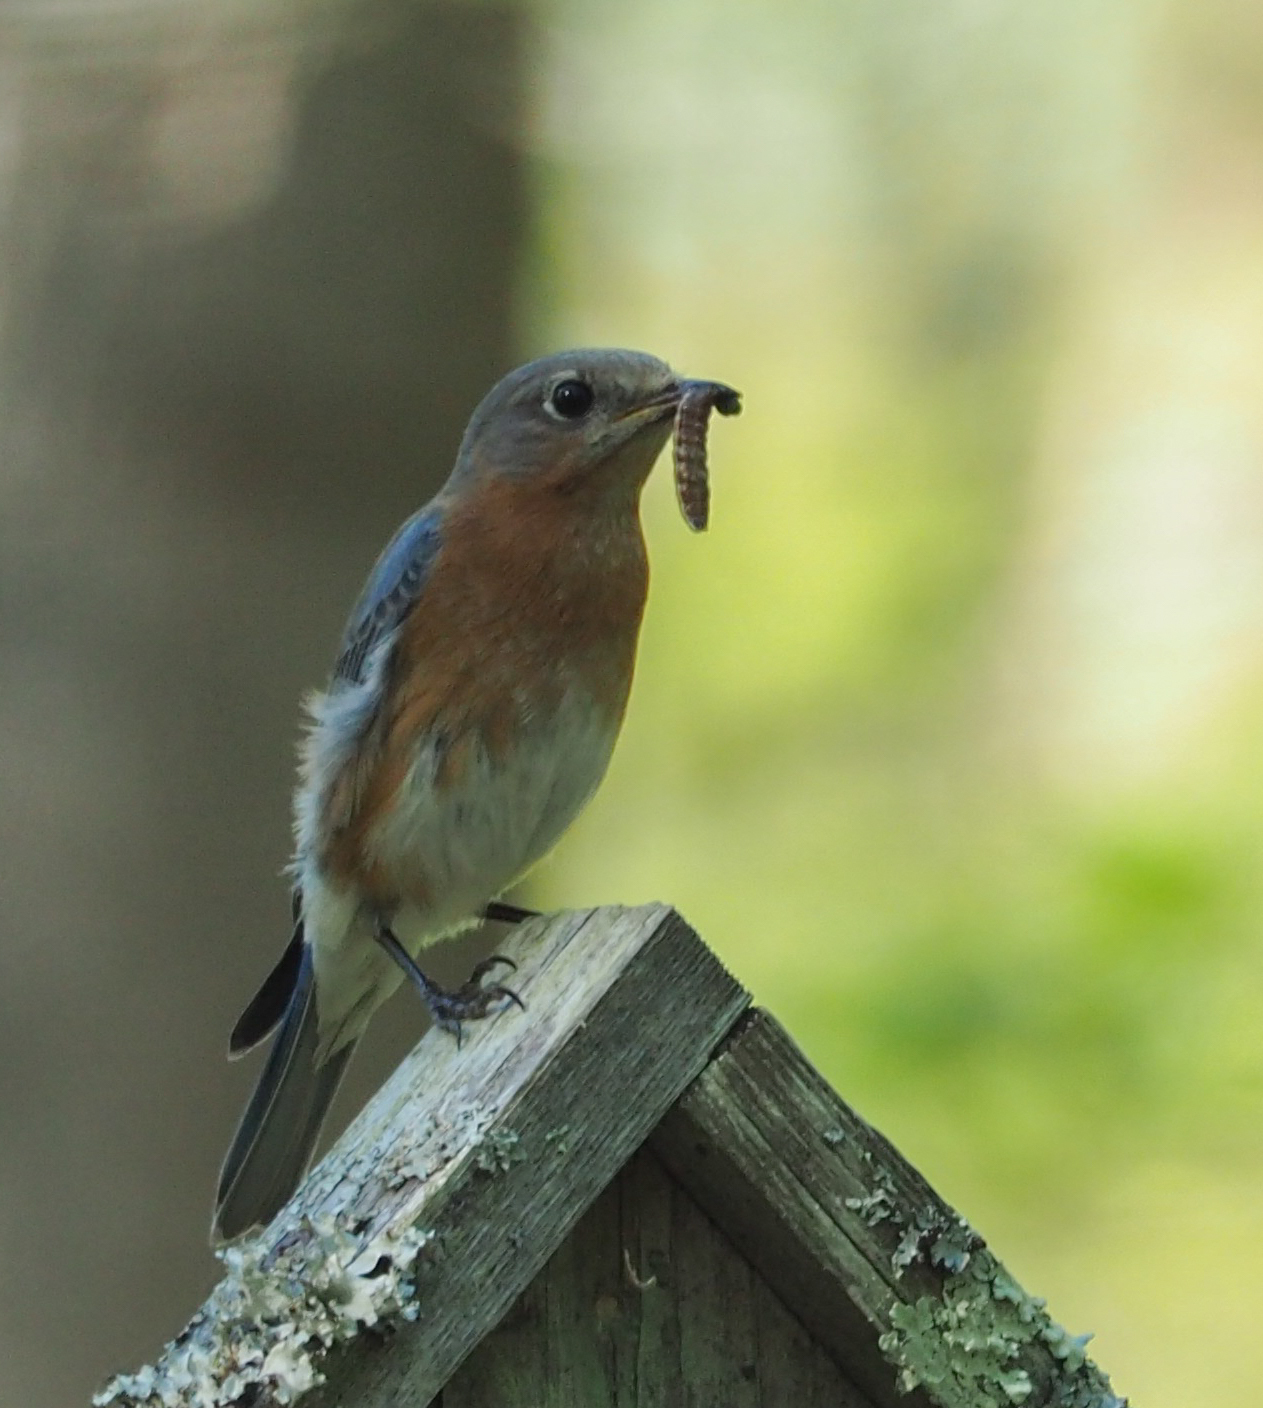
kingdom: Animalia
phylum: Chordata
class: Aves
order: Passeriformes
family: Turdidae
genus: Sialia
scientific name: Sialia sialis
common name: Eastern bluebird
